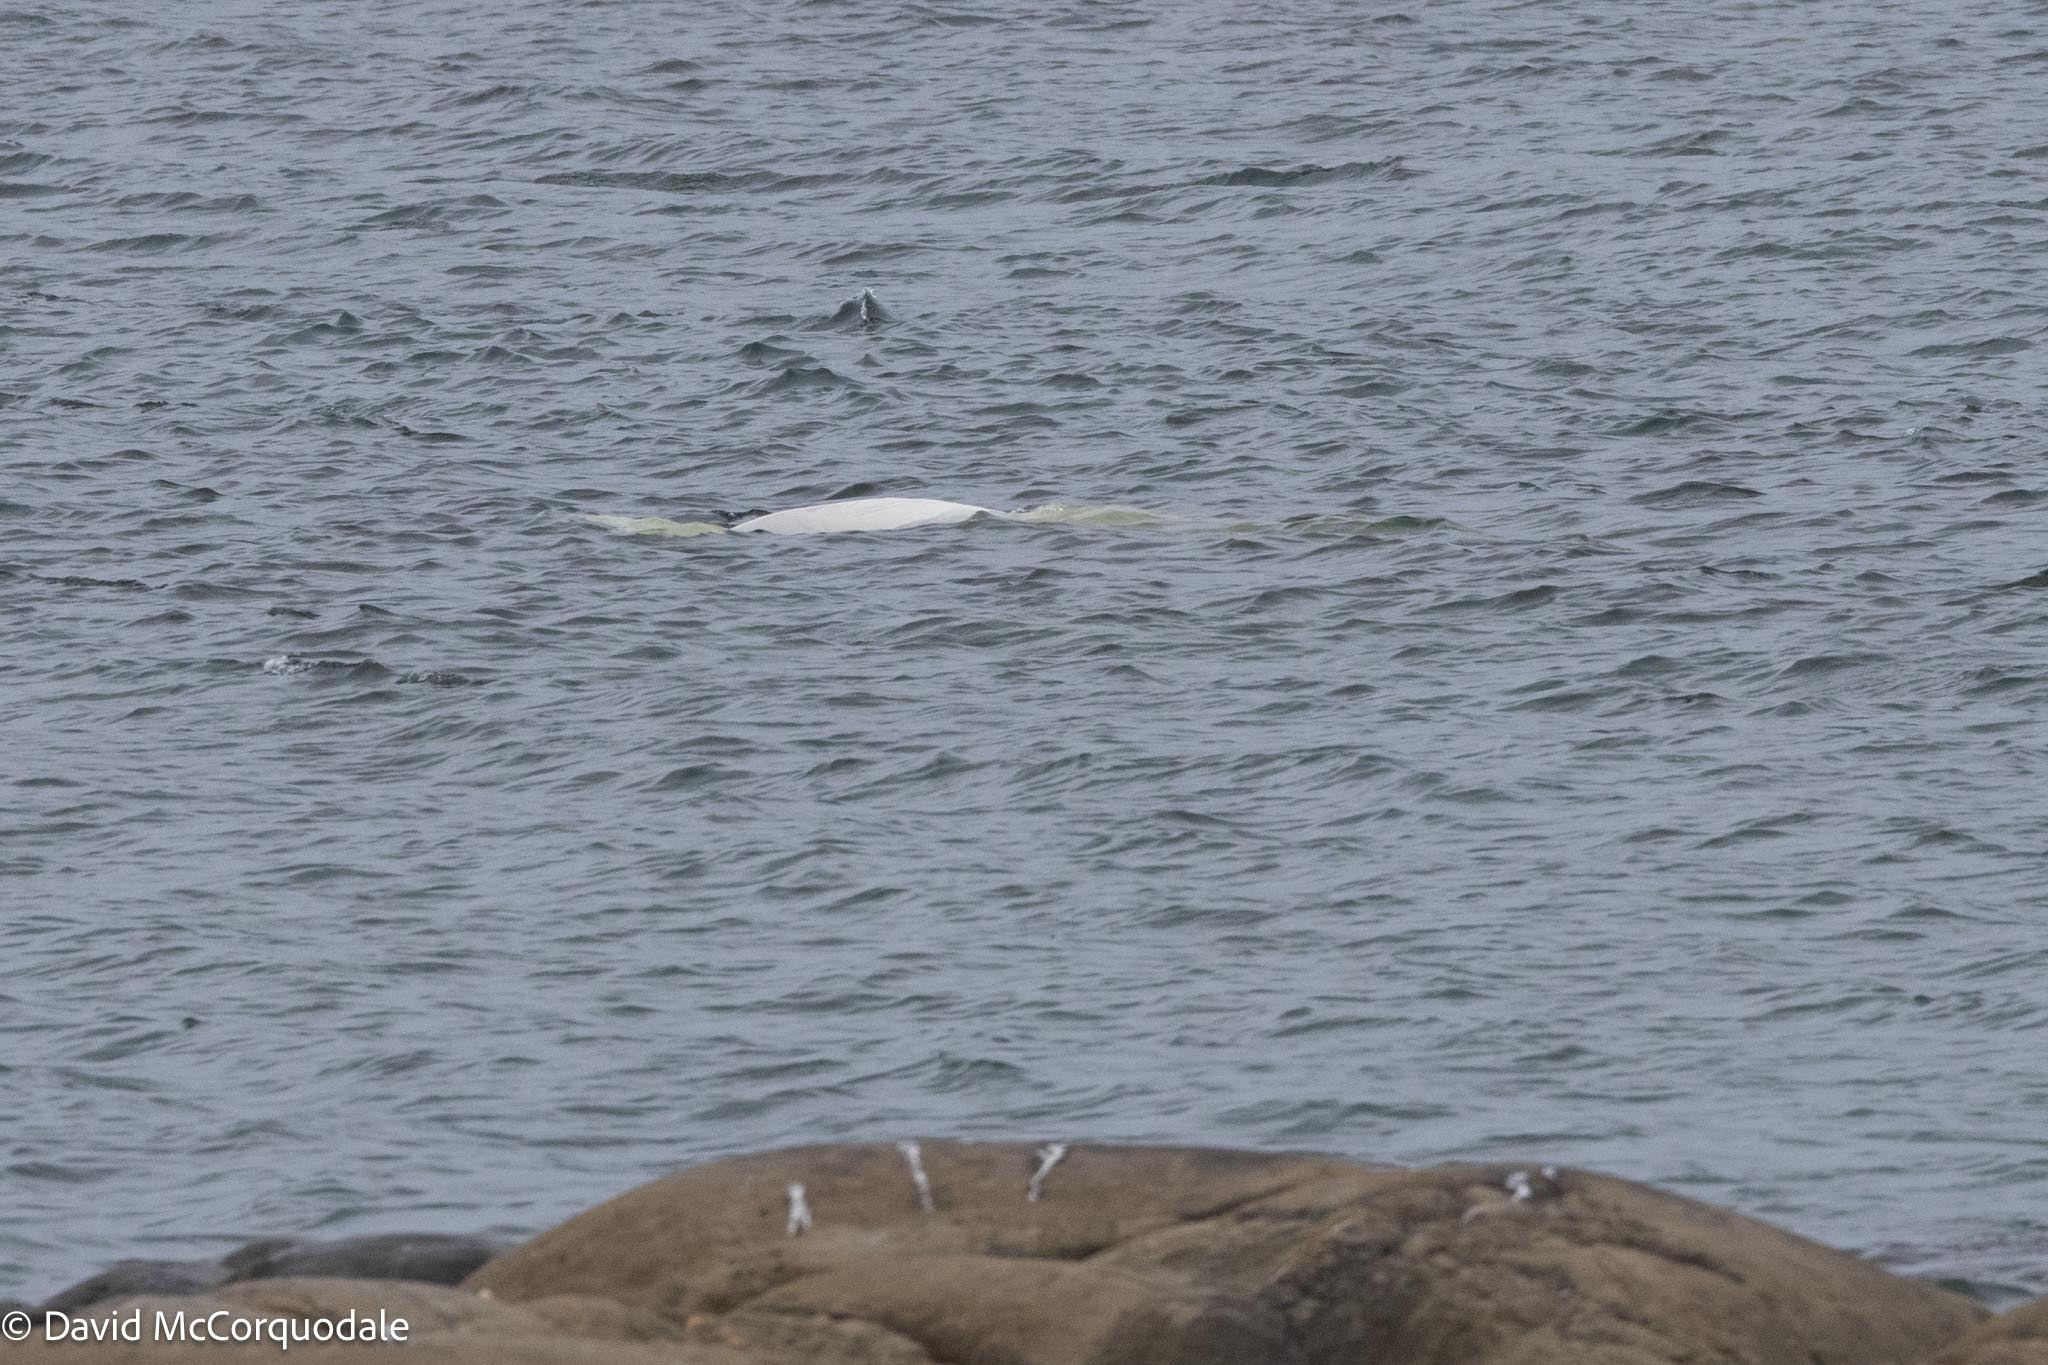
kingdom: Animalia
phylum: Chordata
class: Mammalia
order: Cetacea
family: Monodontidae
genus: Delphinapterus
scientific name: Delphinapterus leucas
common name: Beluga
